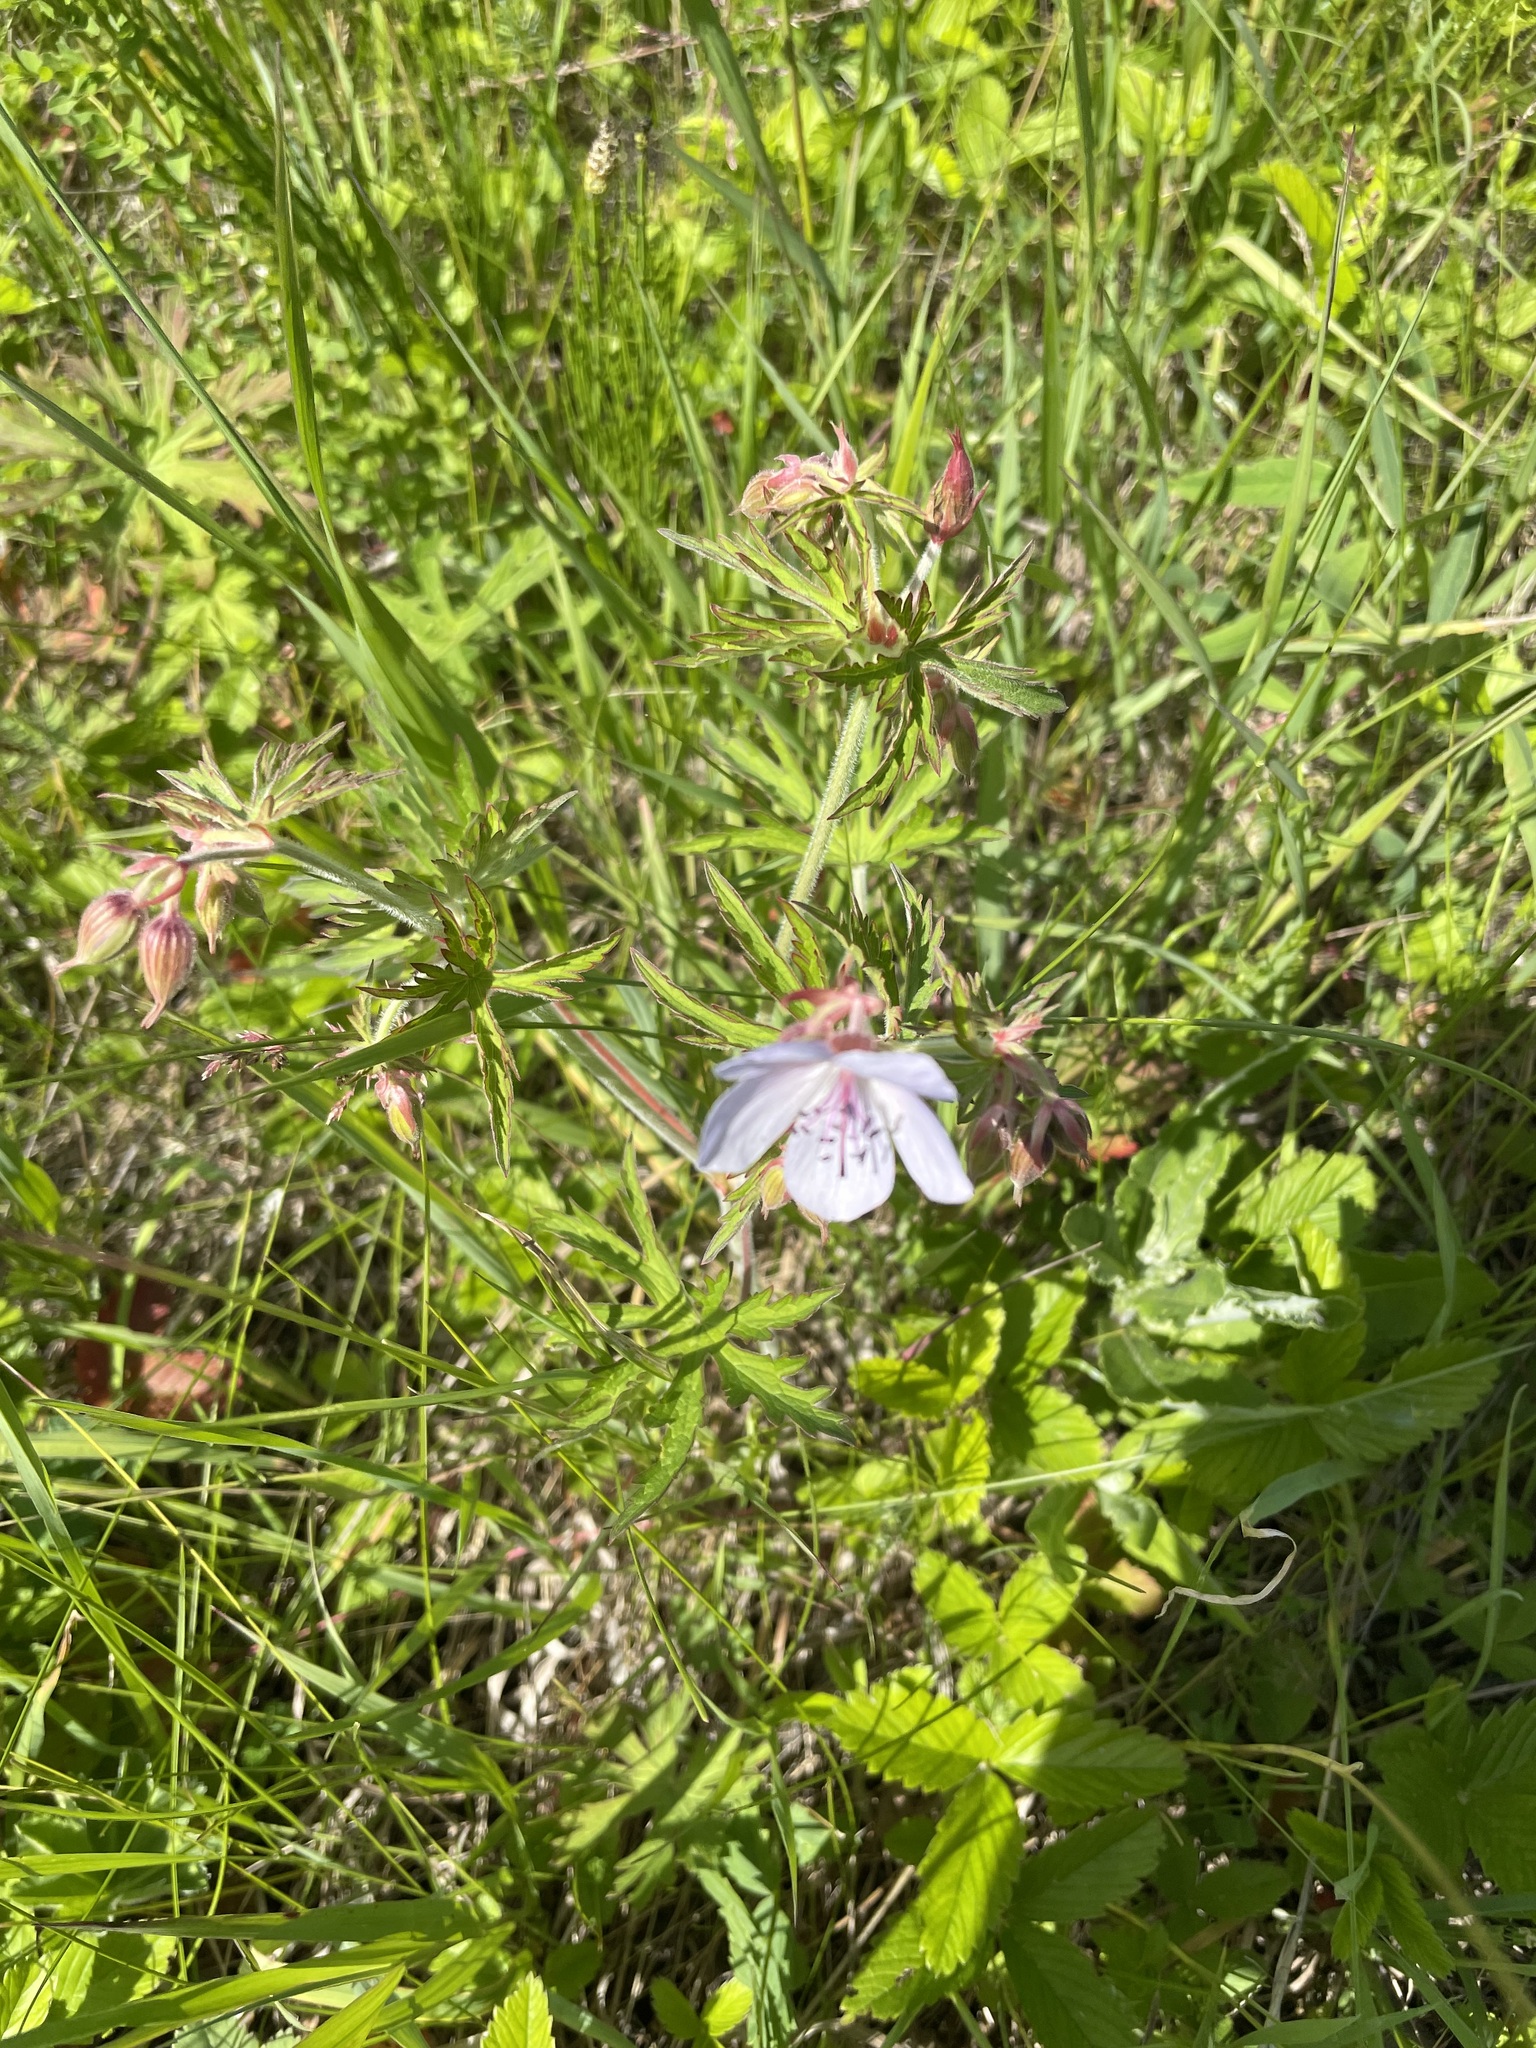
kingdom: Plantae
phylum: Tracheophyta
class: Magnoliopsida
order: Geraniales
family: Geraniaceae
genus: Geranium
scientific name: Geranium pratense
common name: Meadow crane's-bill
